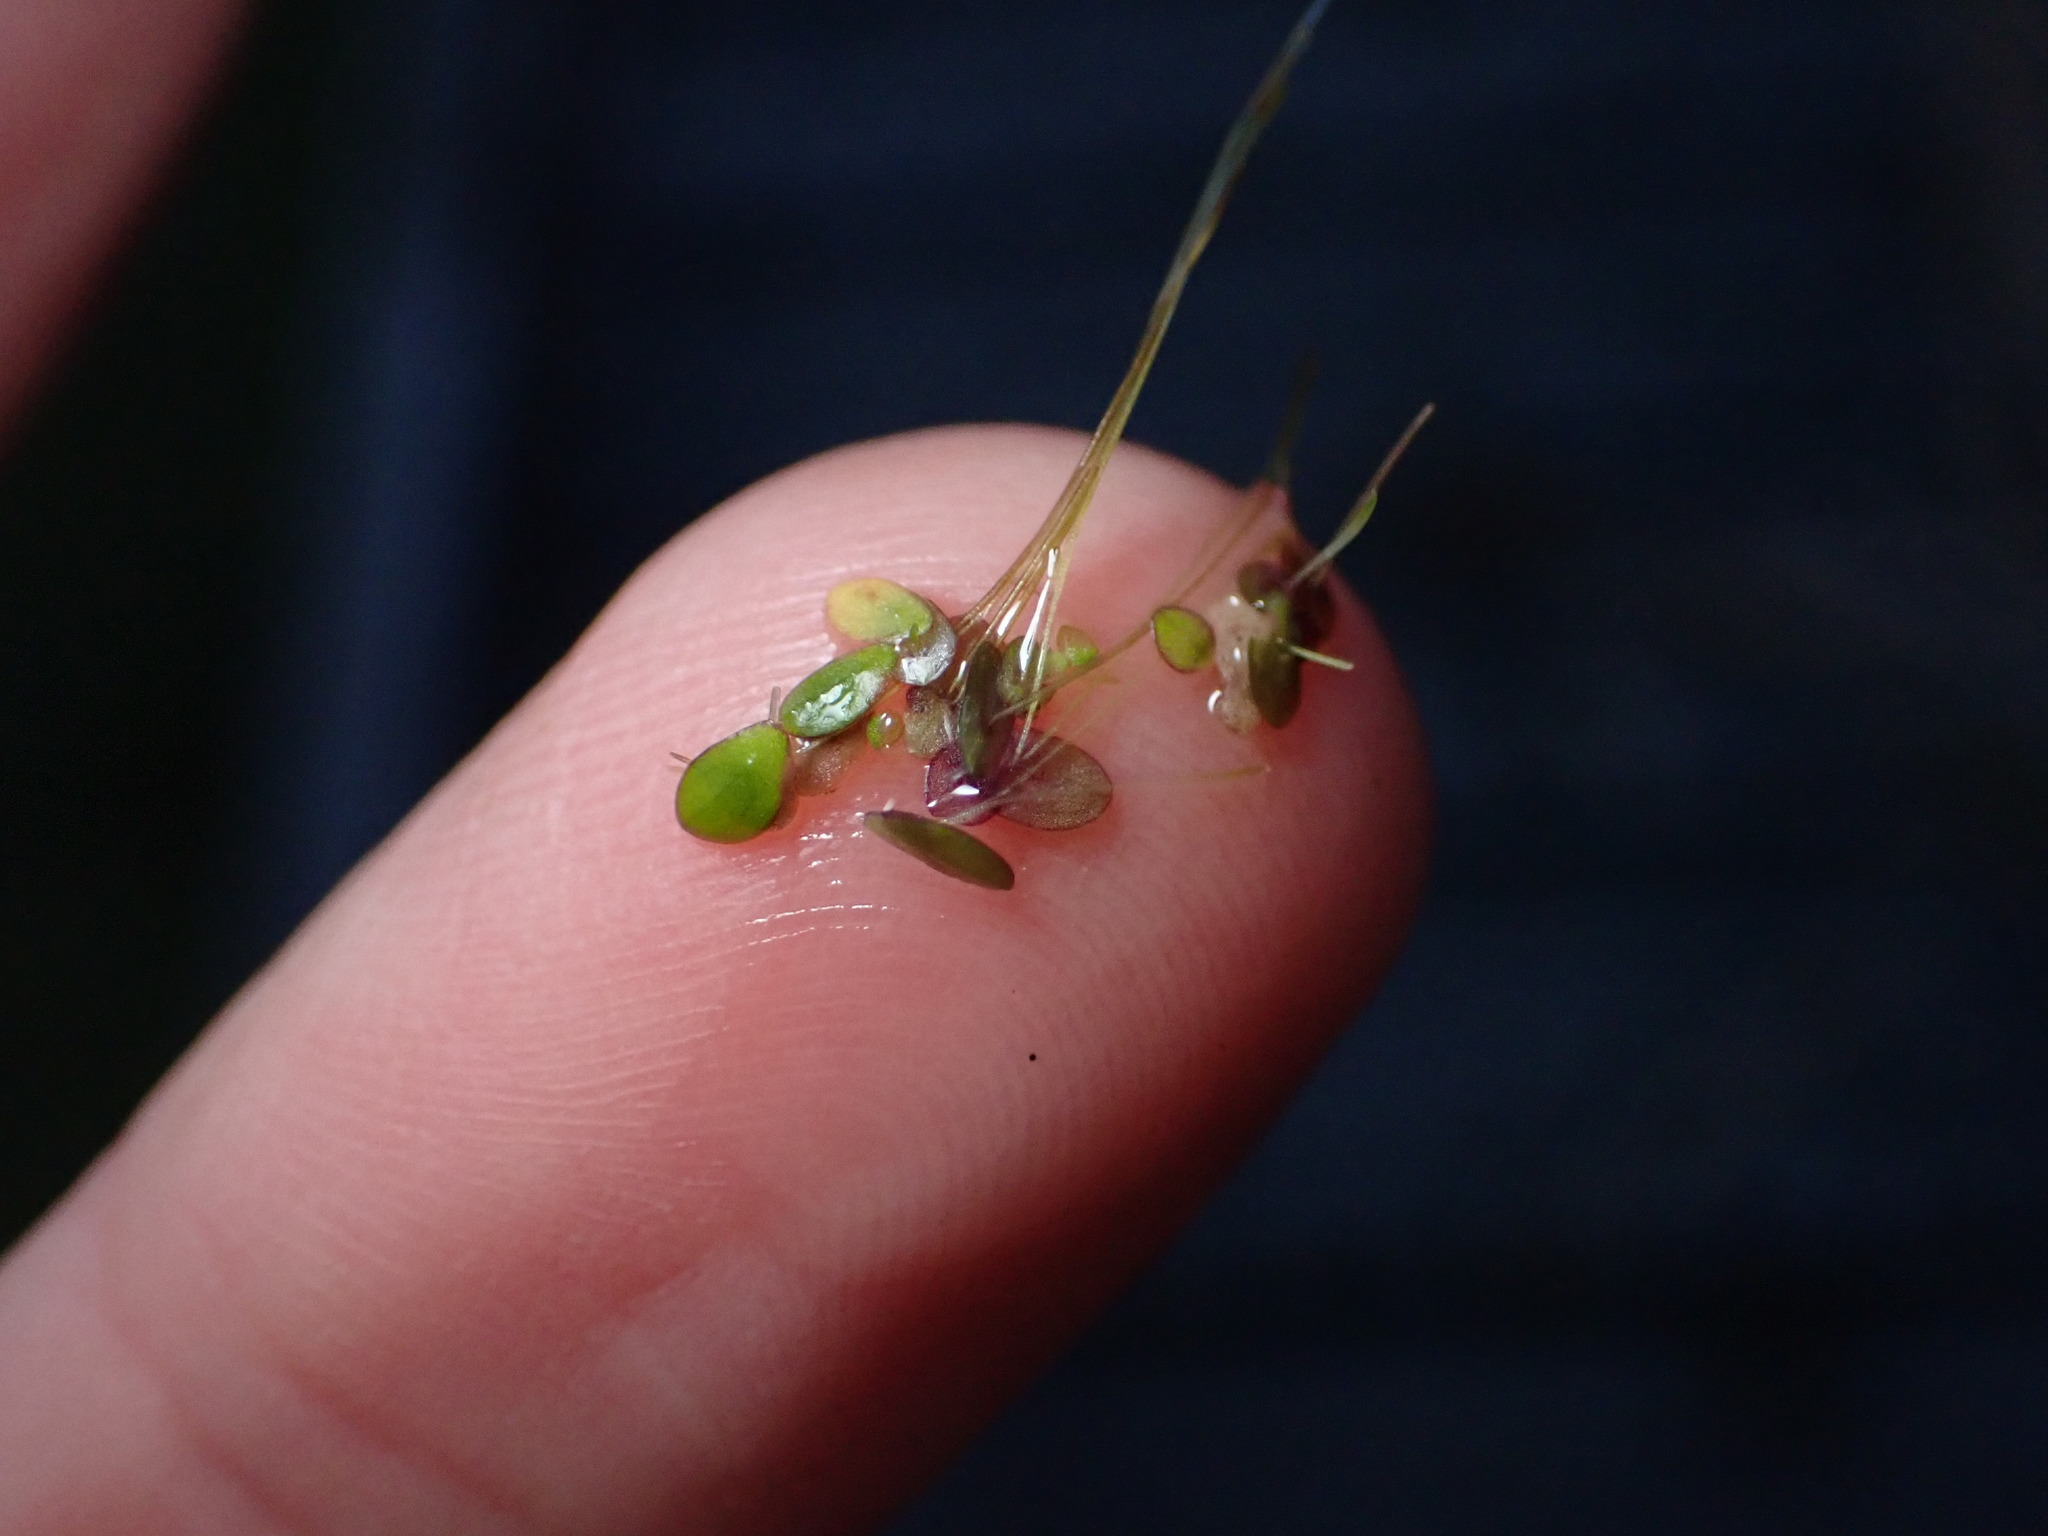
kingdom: Plantae
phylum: Tracheophyta
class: Liliopsida
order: Alismatales
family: Araceae
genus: Spirodela
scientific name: Spirodela punctata
